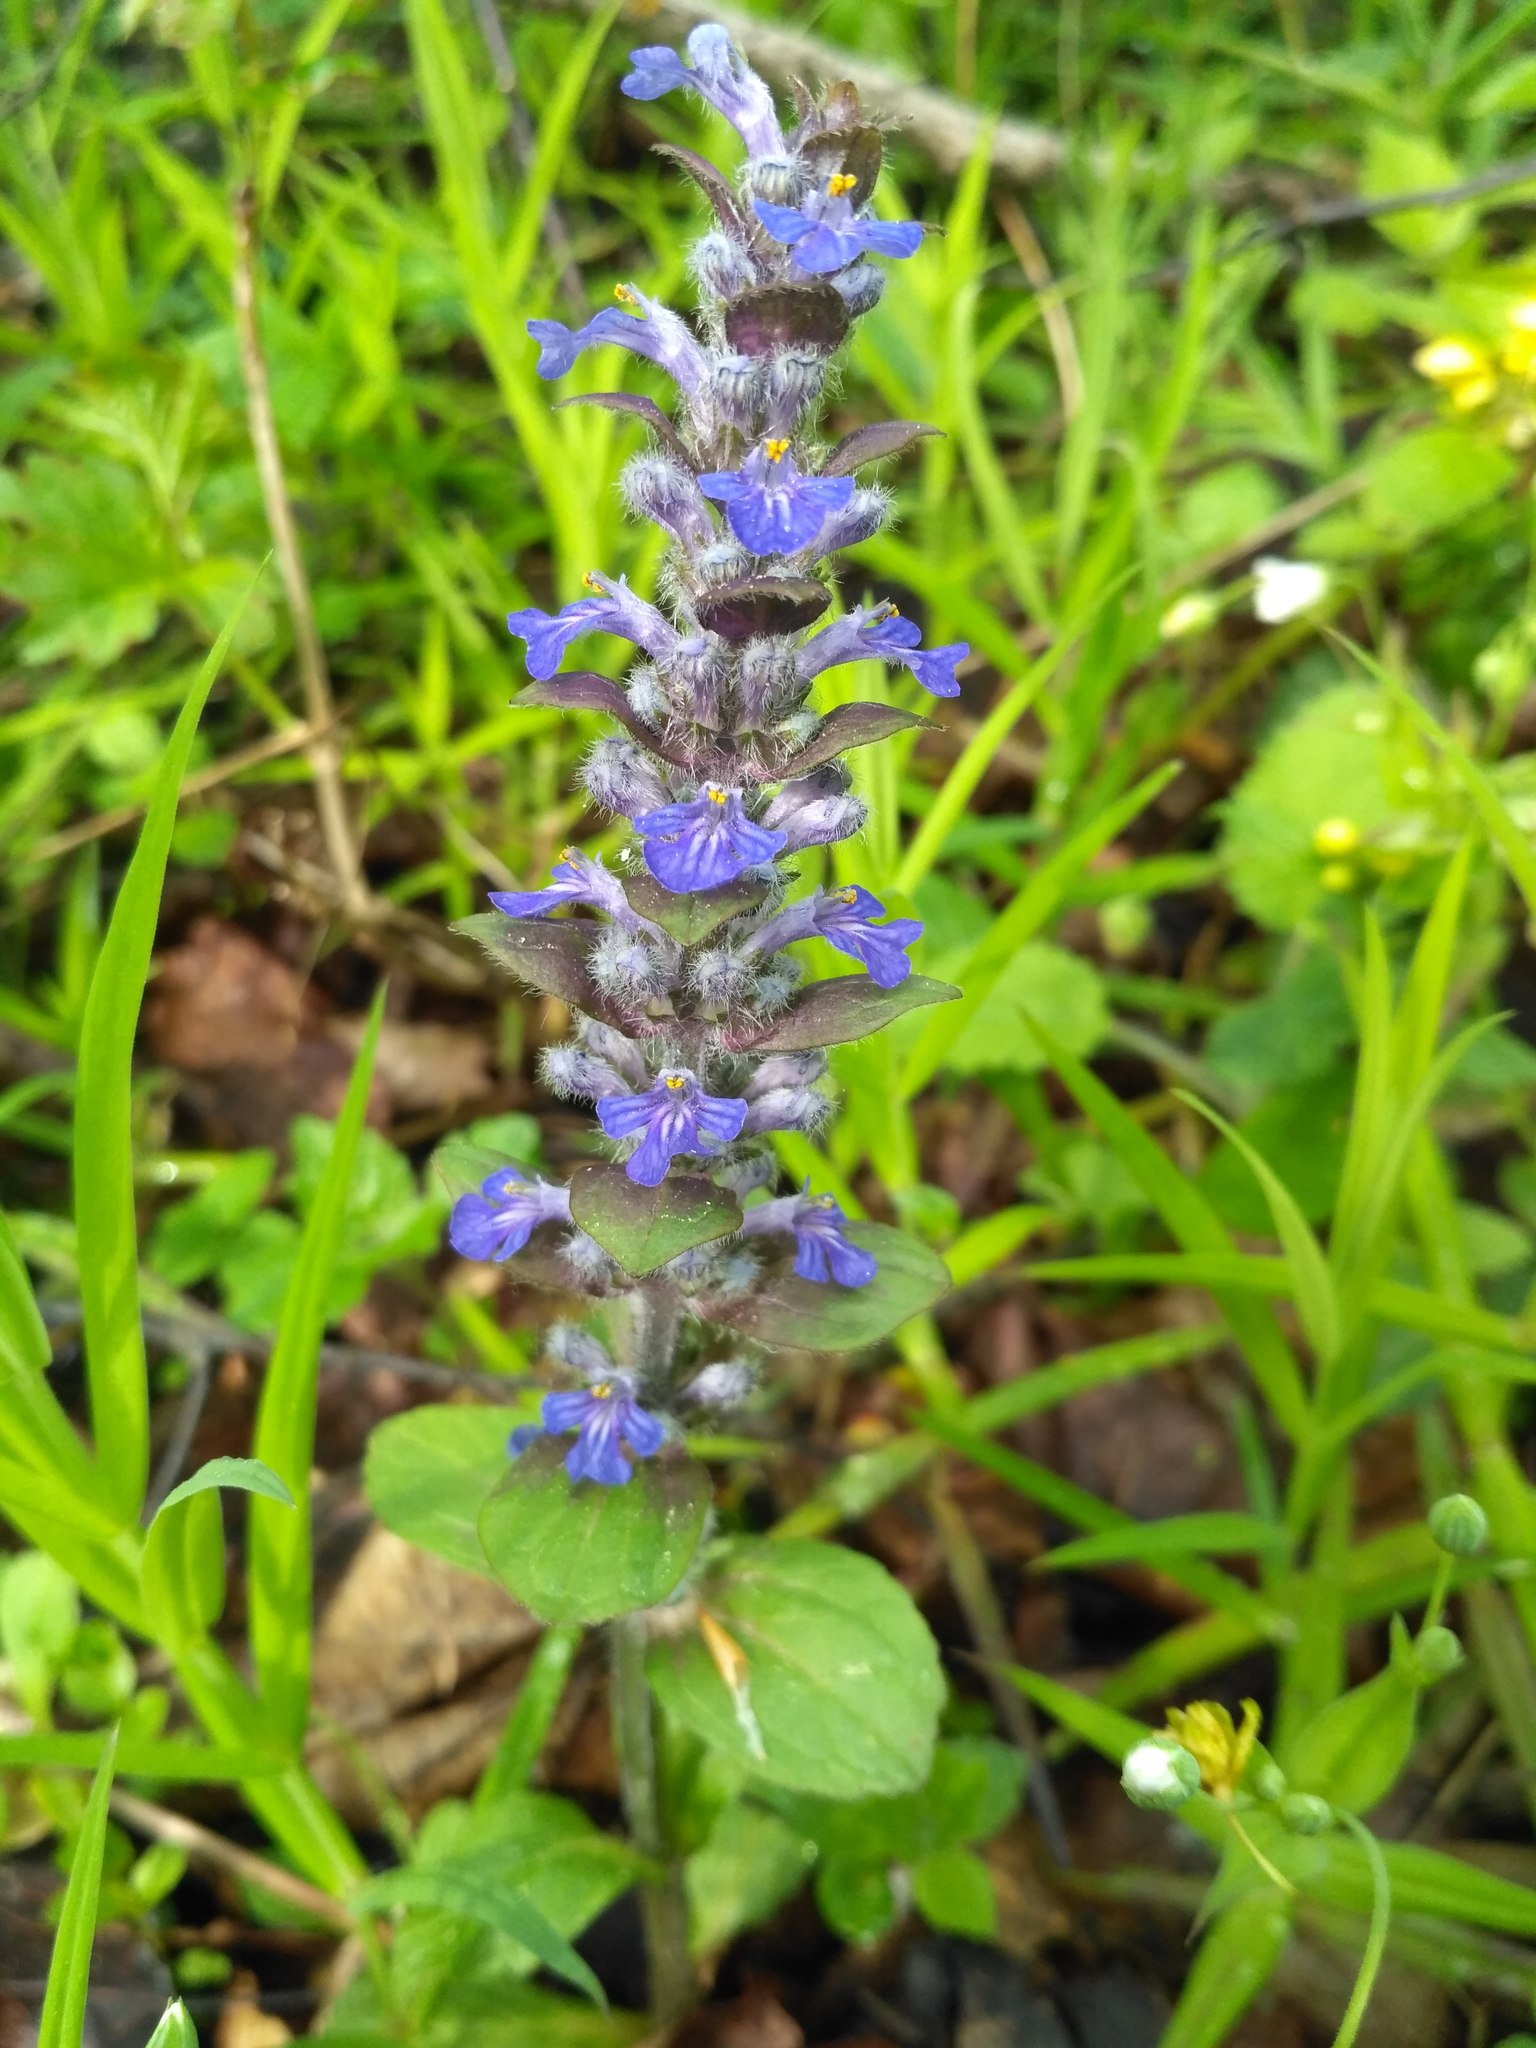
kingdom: Plantae
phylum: Tracheophyta
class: Magnoliopsida
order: Lamiales
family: Lamiaceae
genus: Ajuga
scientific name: Ajuga reptans
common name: Bugle
